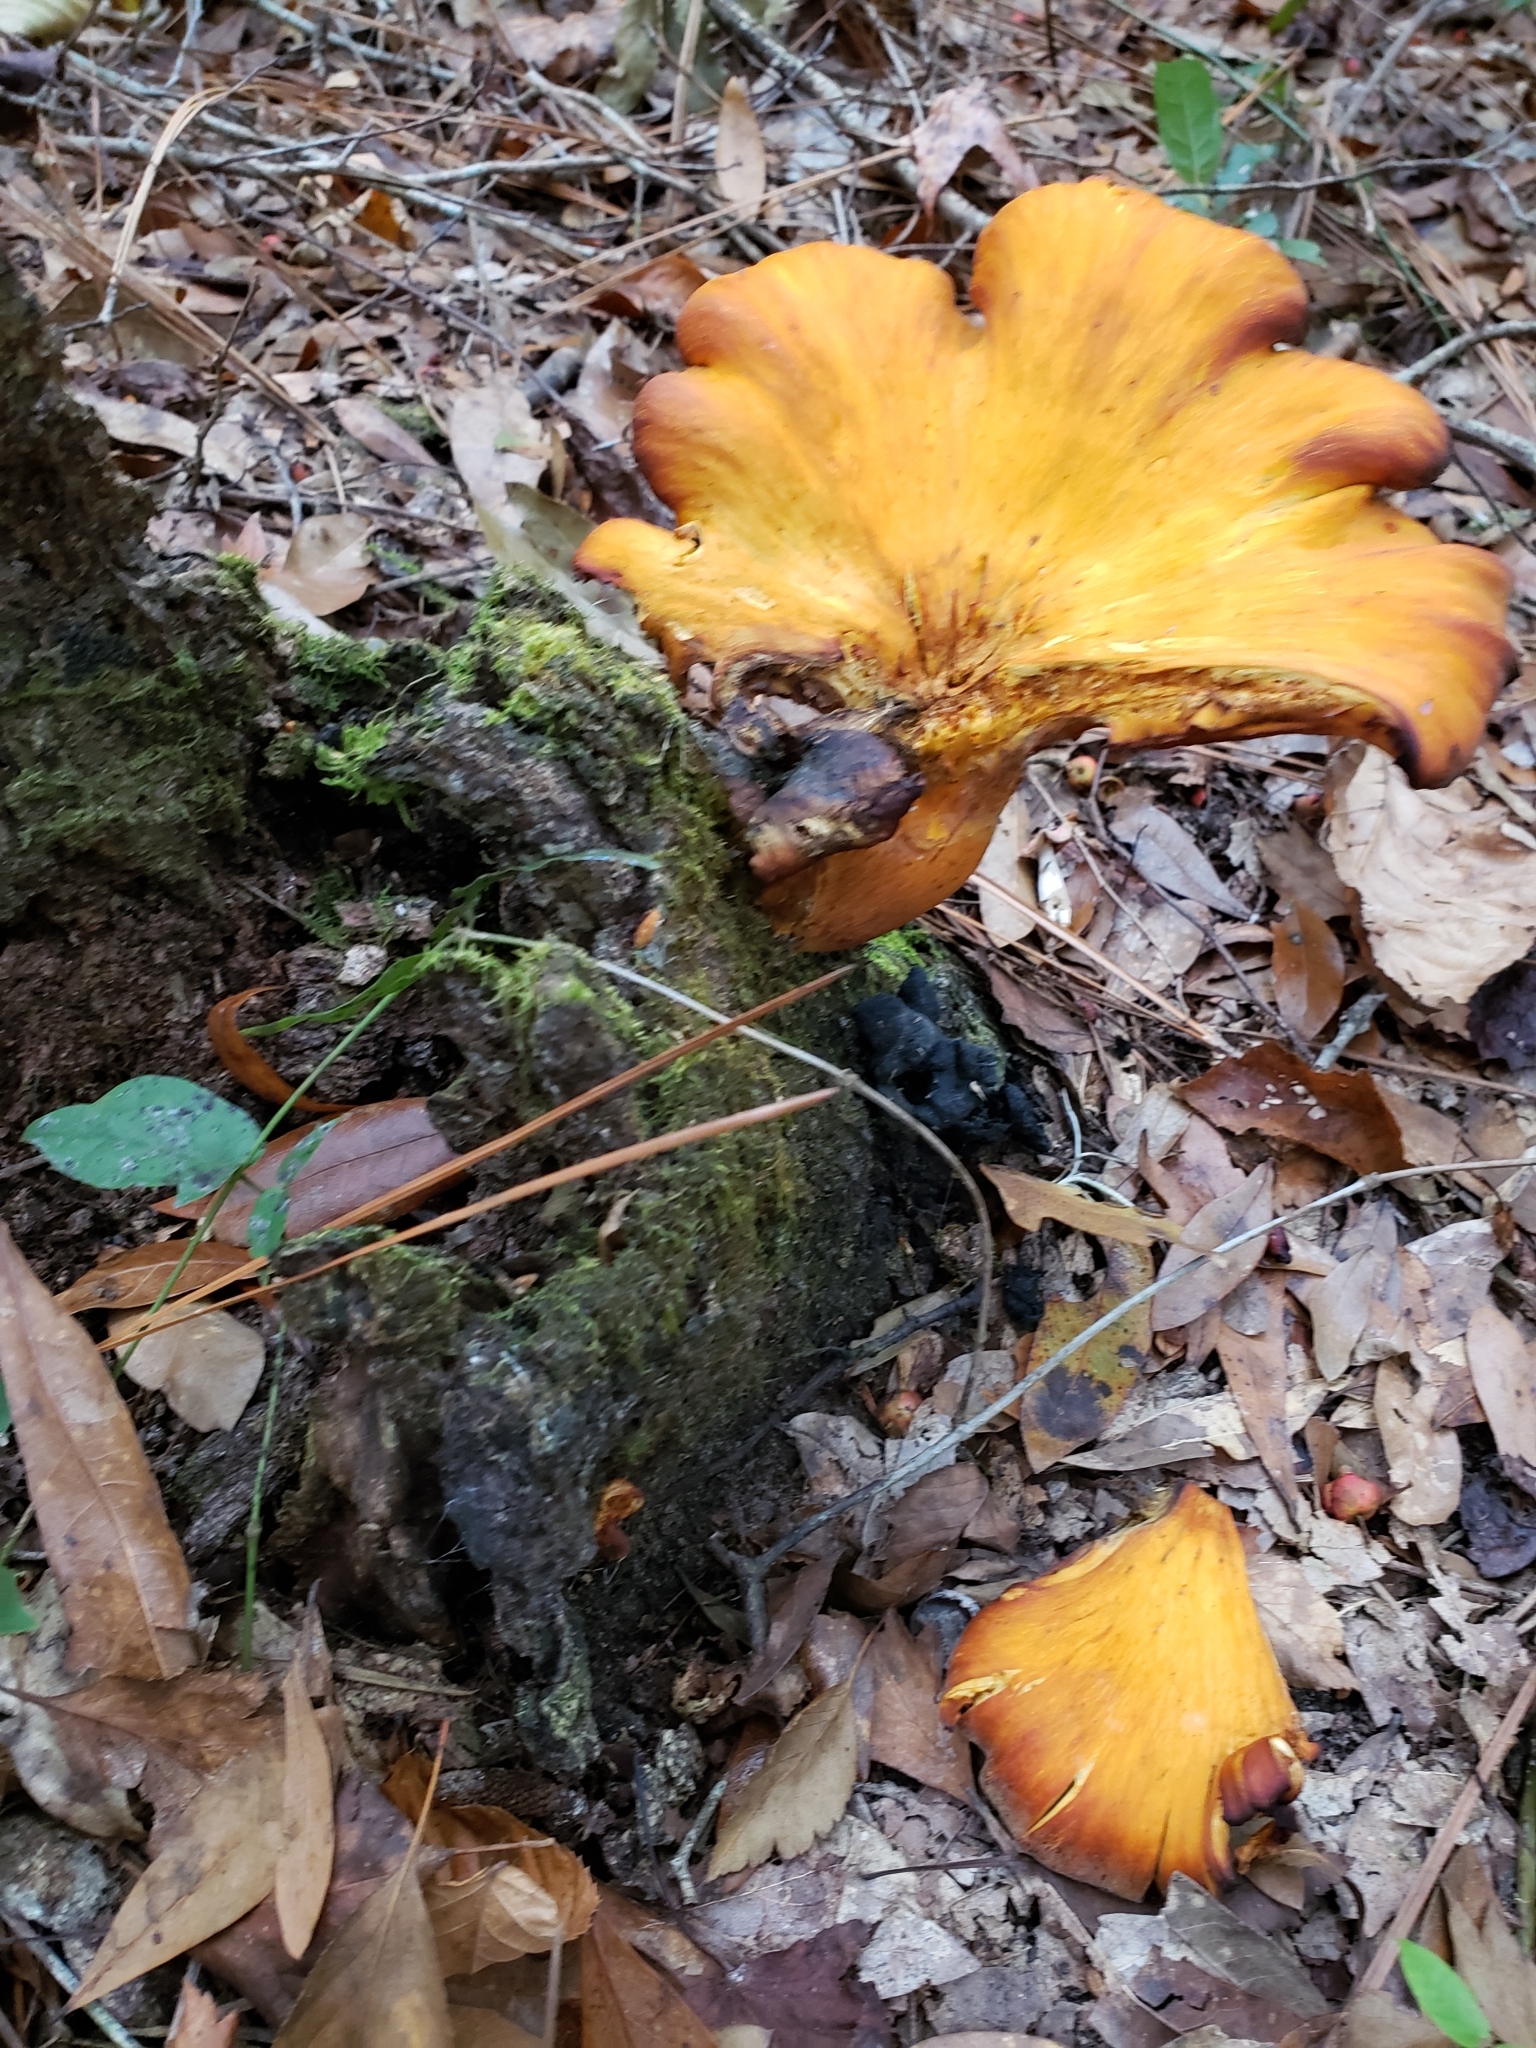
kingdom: Fungi
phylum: Basidiomycota
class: Agaricomycetes
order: Agaricales
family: Omphalotaceae
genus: Omphalotus
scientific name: Omphalotus illudens
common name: Jack o lantern
